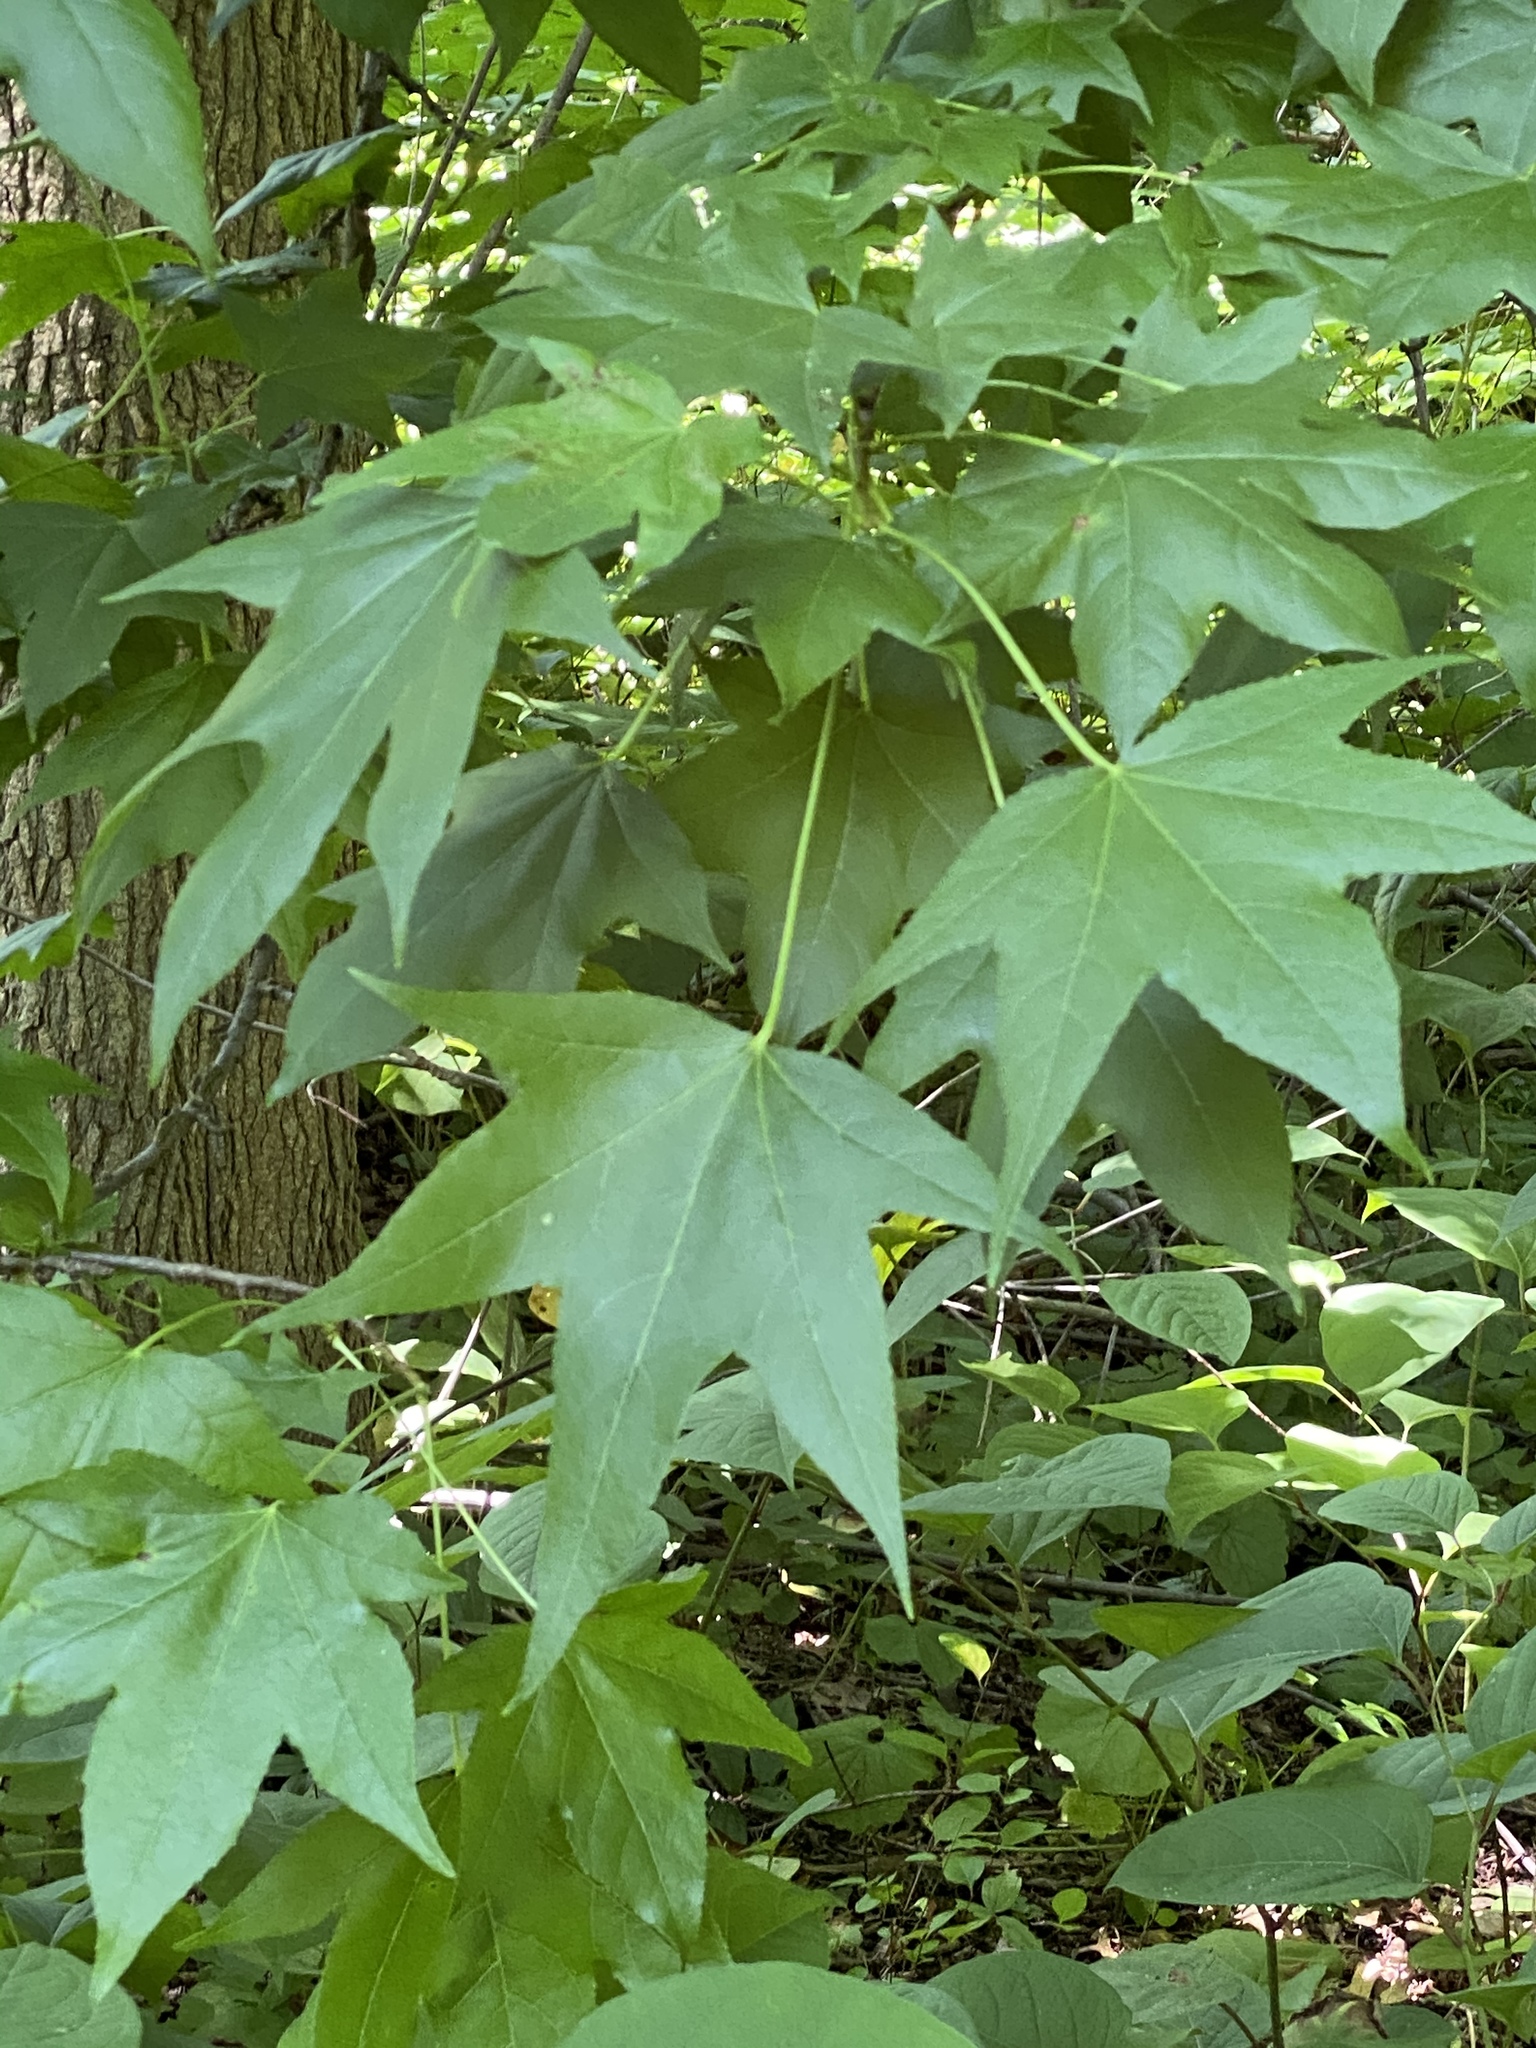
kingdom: Plantae
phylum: Tracheophyta
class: Magnoliopsida
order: Saxifragales
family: Altingiaceae
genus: Liquidambar
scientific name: Liquidambar styraciflua
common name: Sweet gum
